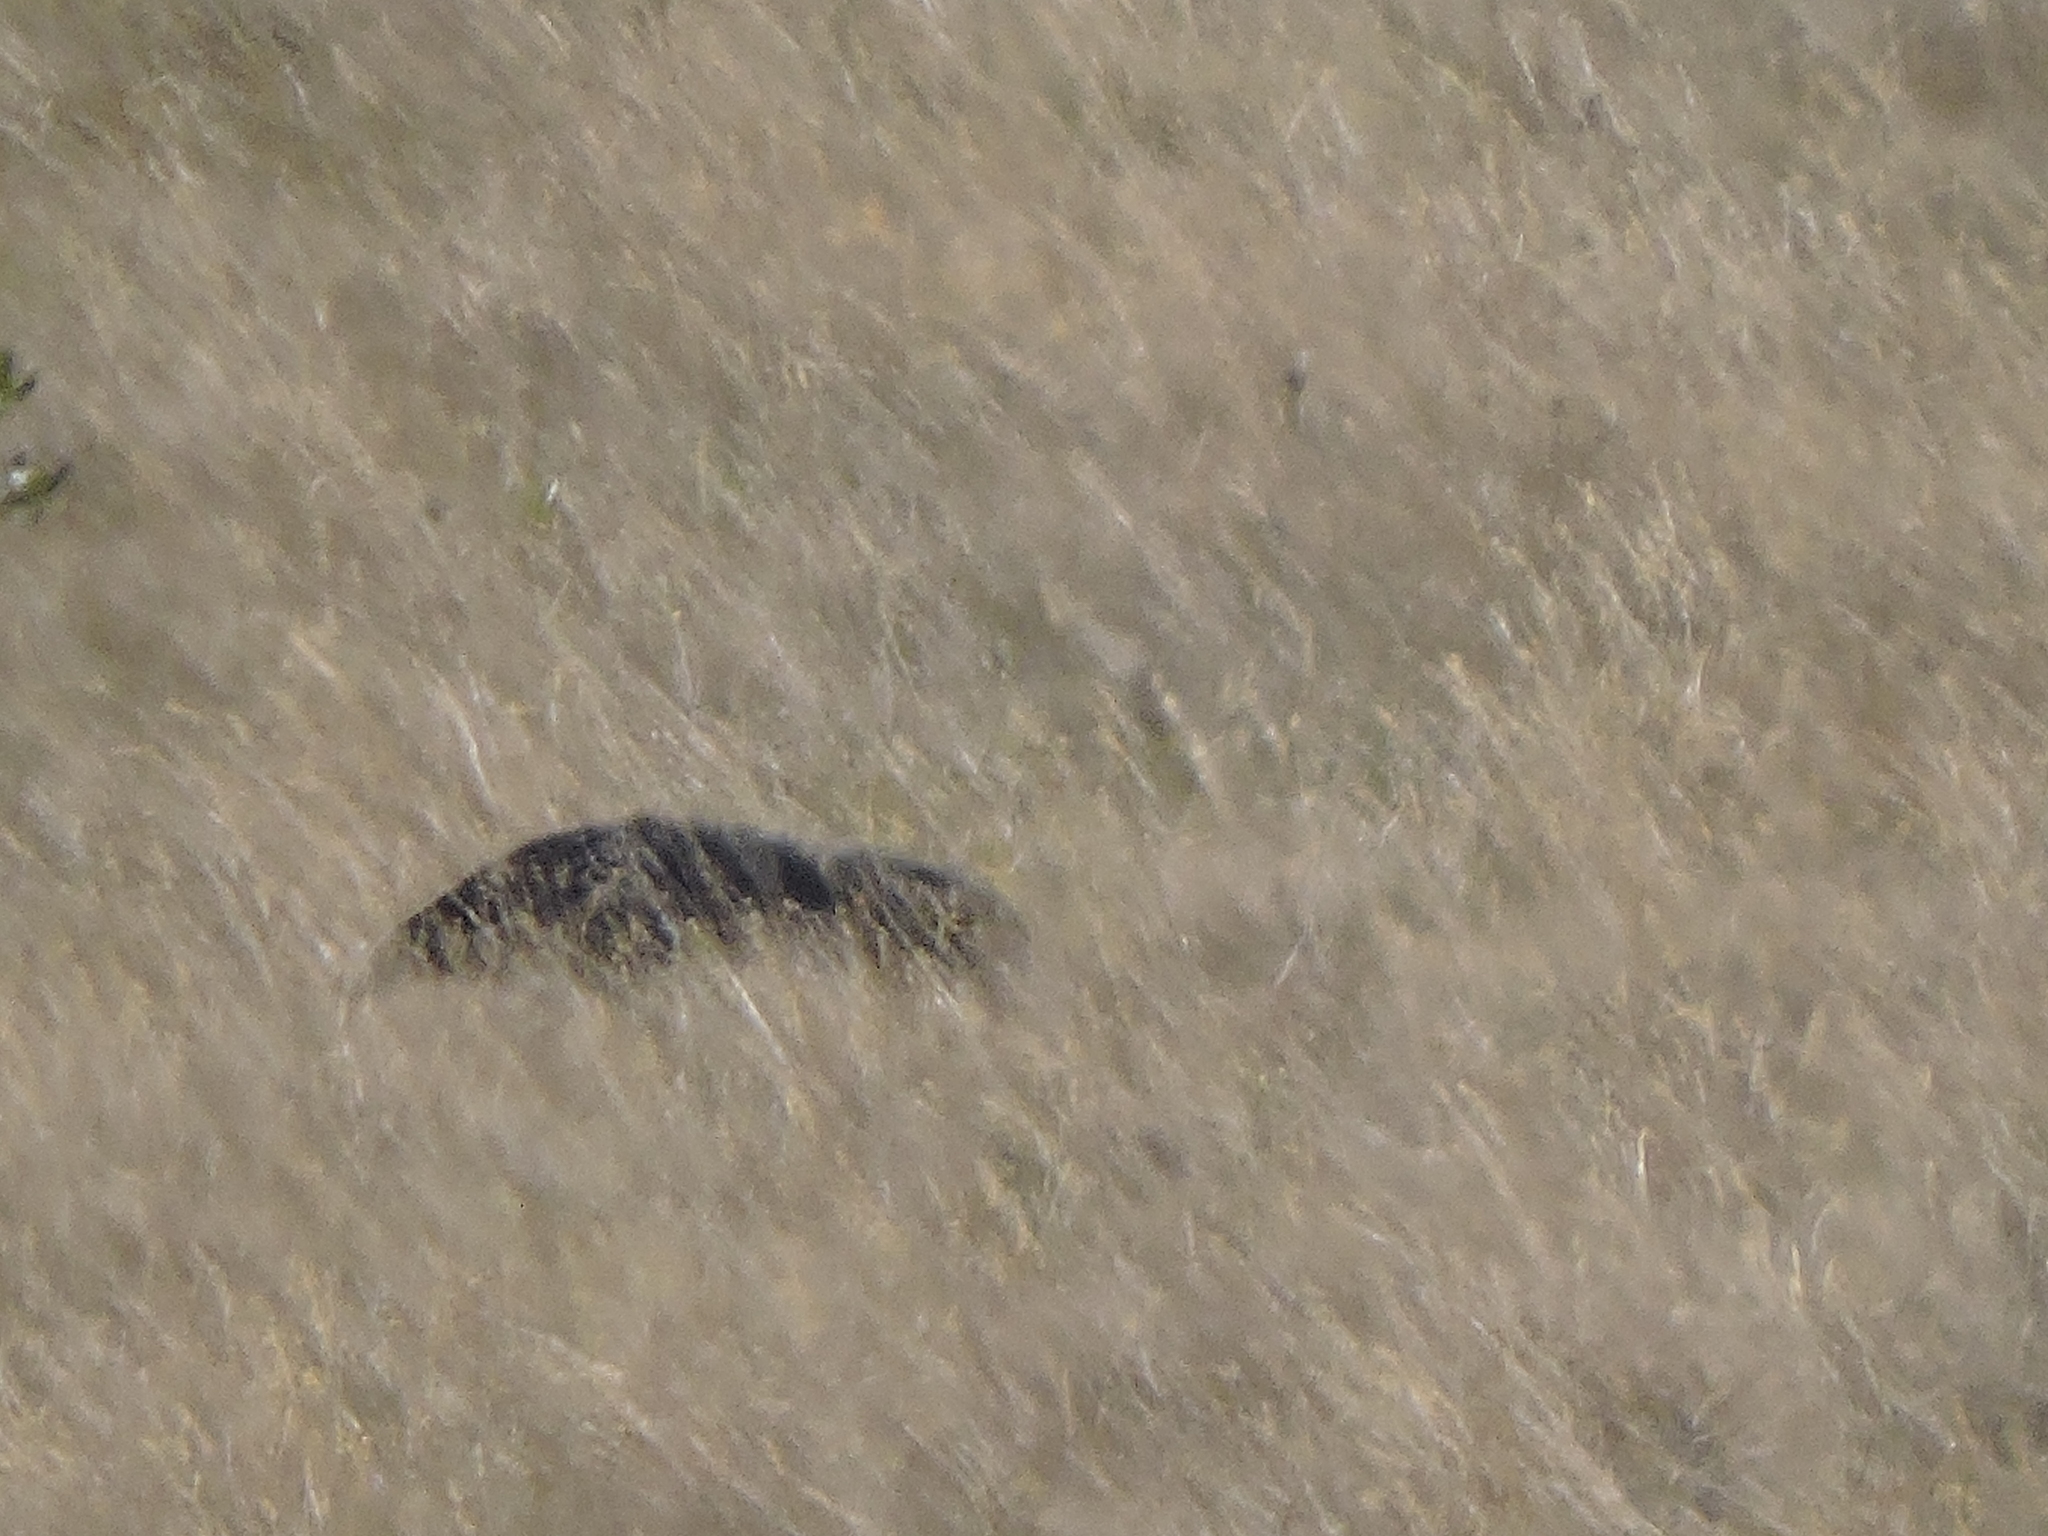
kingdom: Animalia
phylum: Chordata
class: Mammalia
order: Pilosa
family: Myrmecophagidae
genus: Myrmecophaga
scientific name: Myrmecophaga tridactyla
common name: Giant anteater
